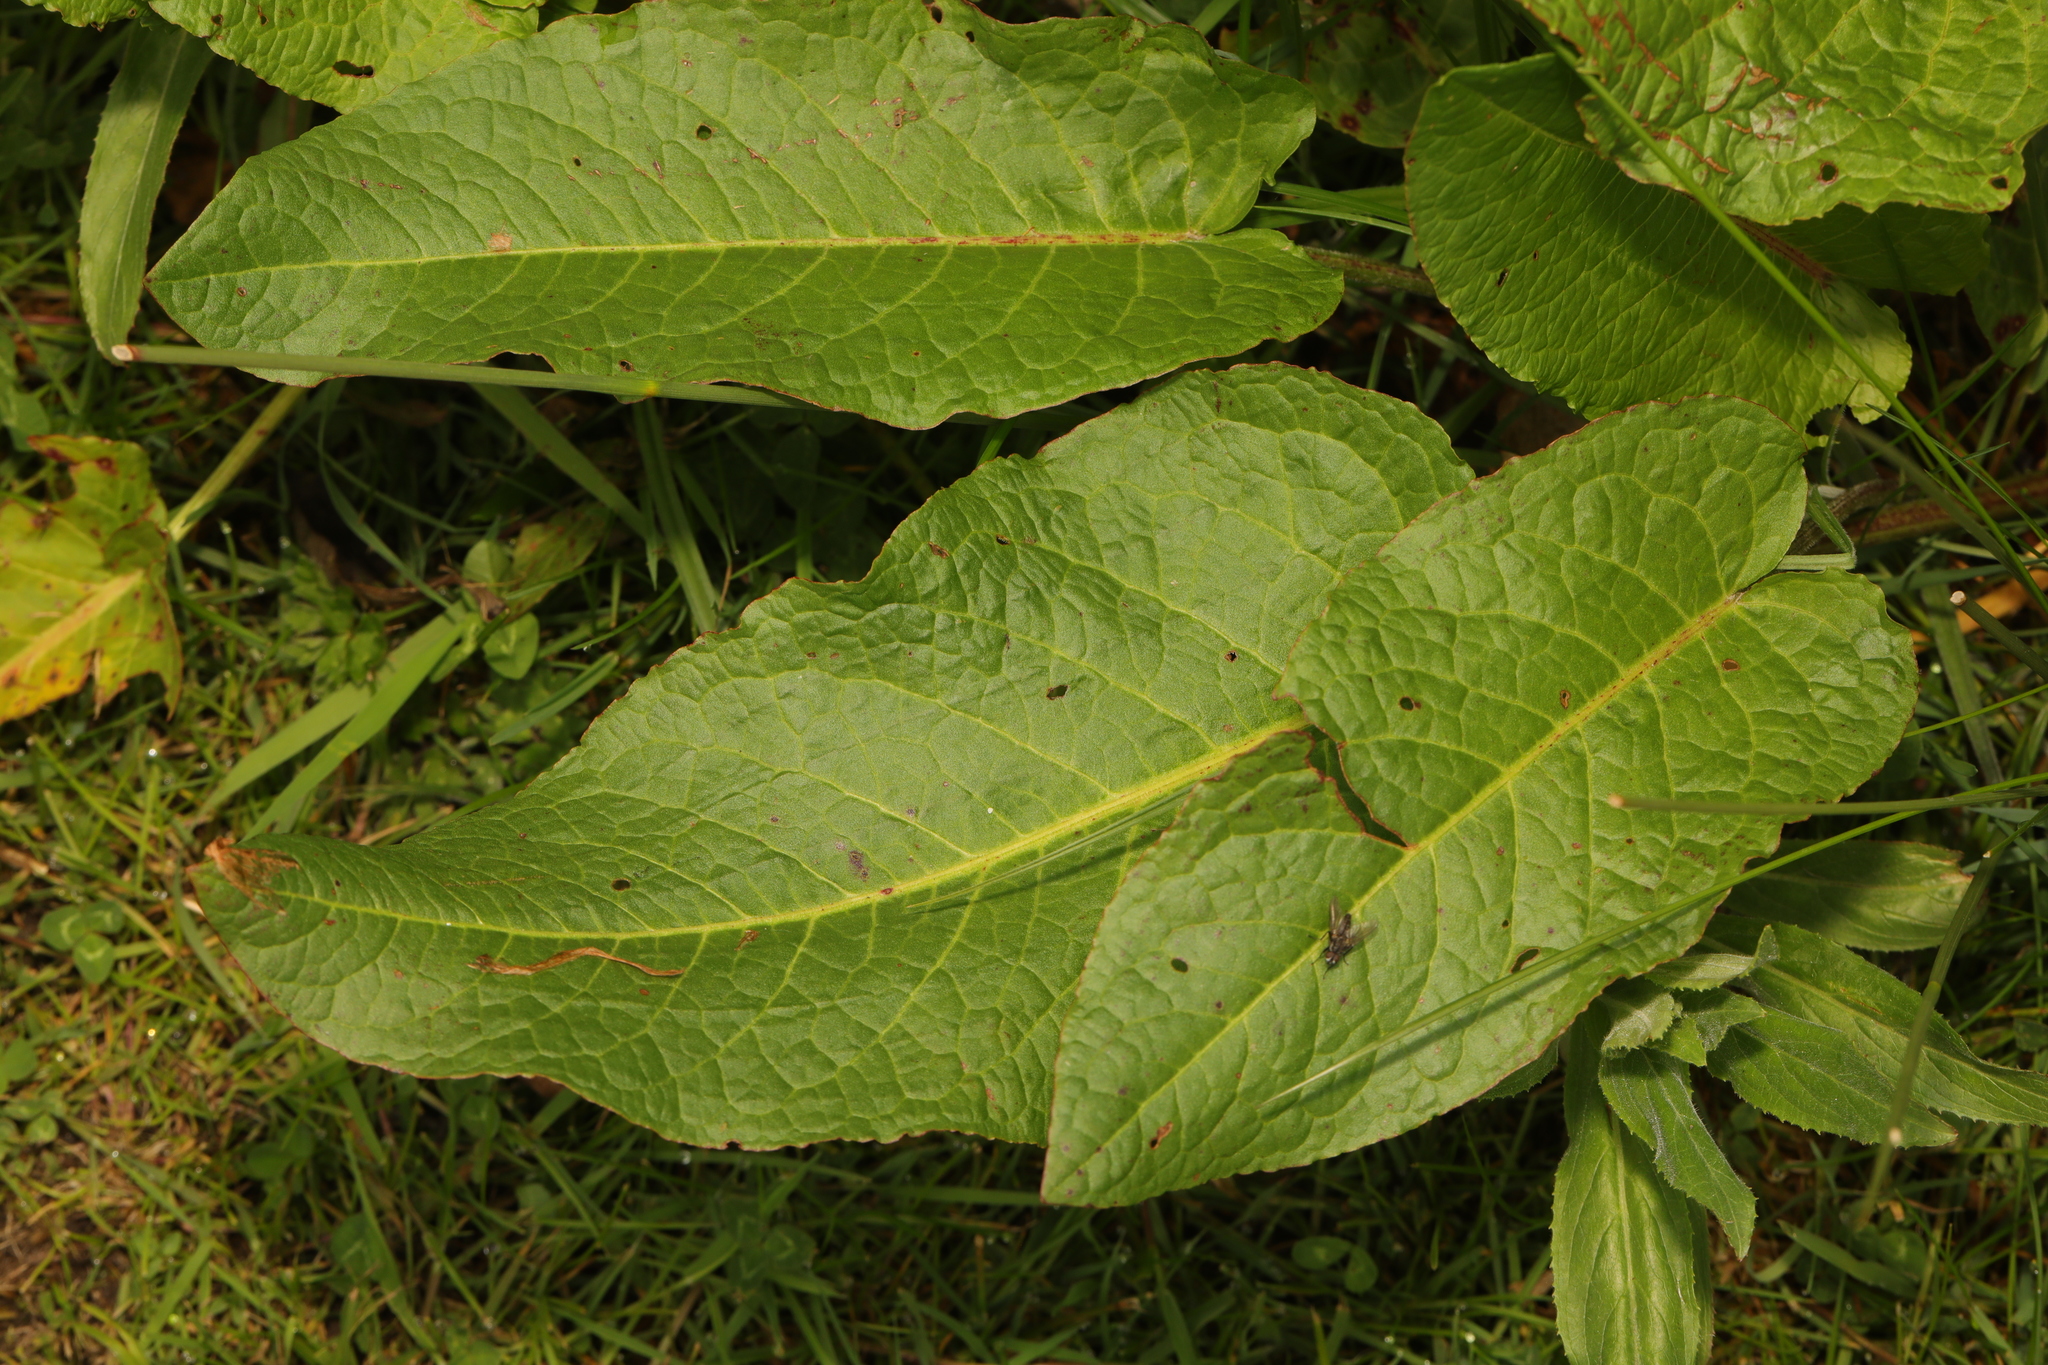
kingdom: Plantae
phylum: Tracheophyta
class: Magnoliopsida
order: Caryophyllales
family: Polygonaceae
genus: Rumex
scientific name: Rumex obtusifolius
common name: Bitter dock
